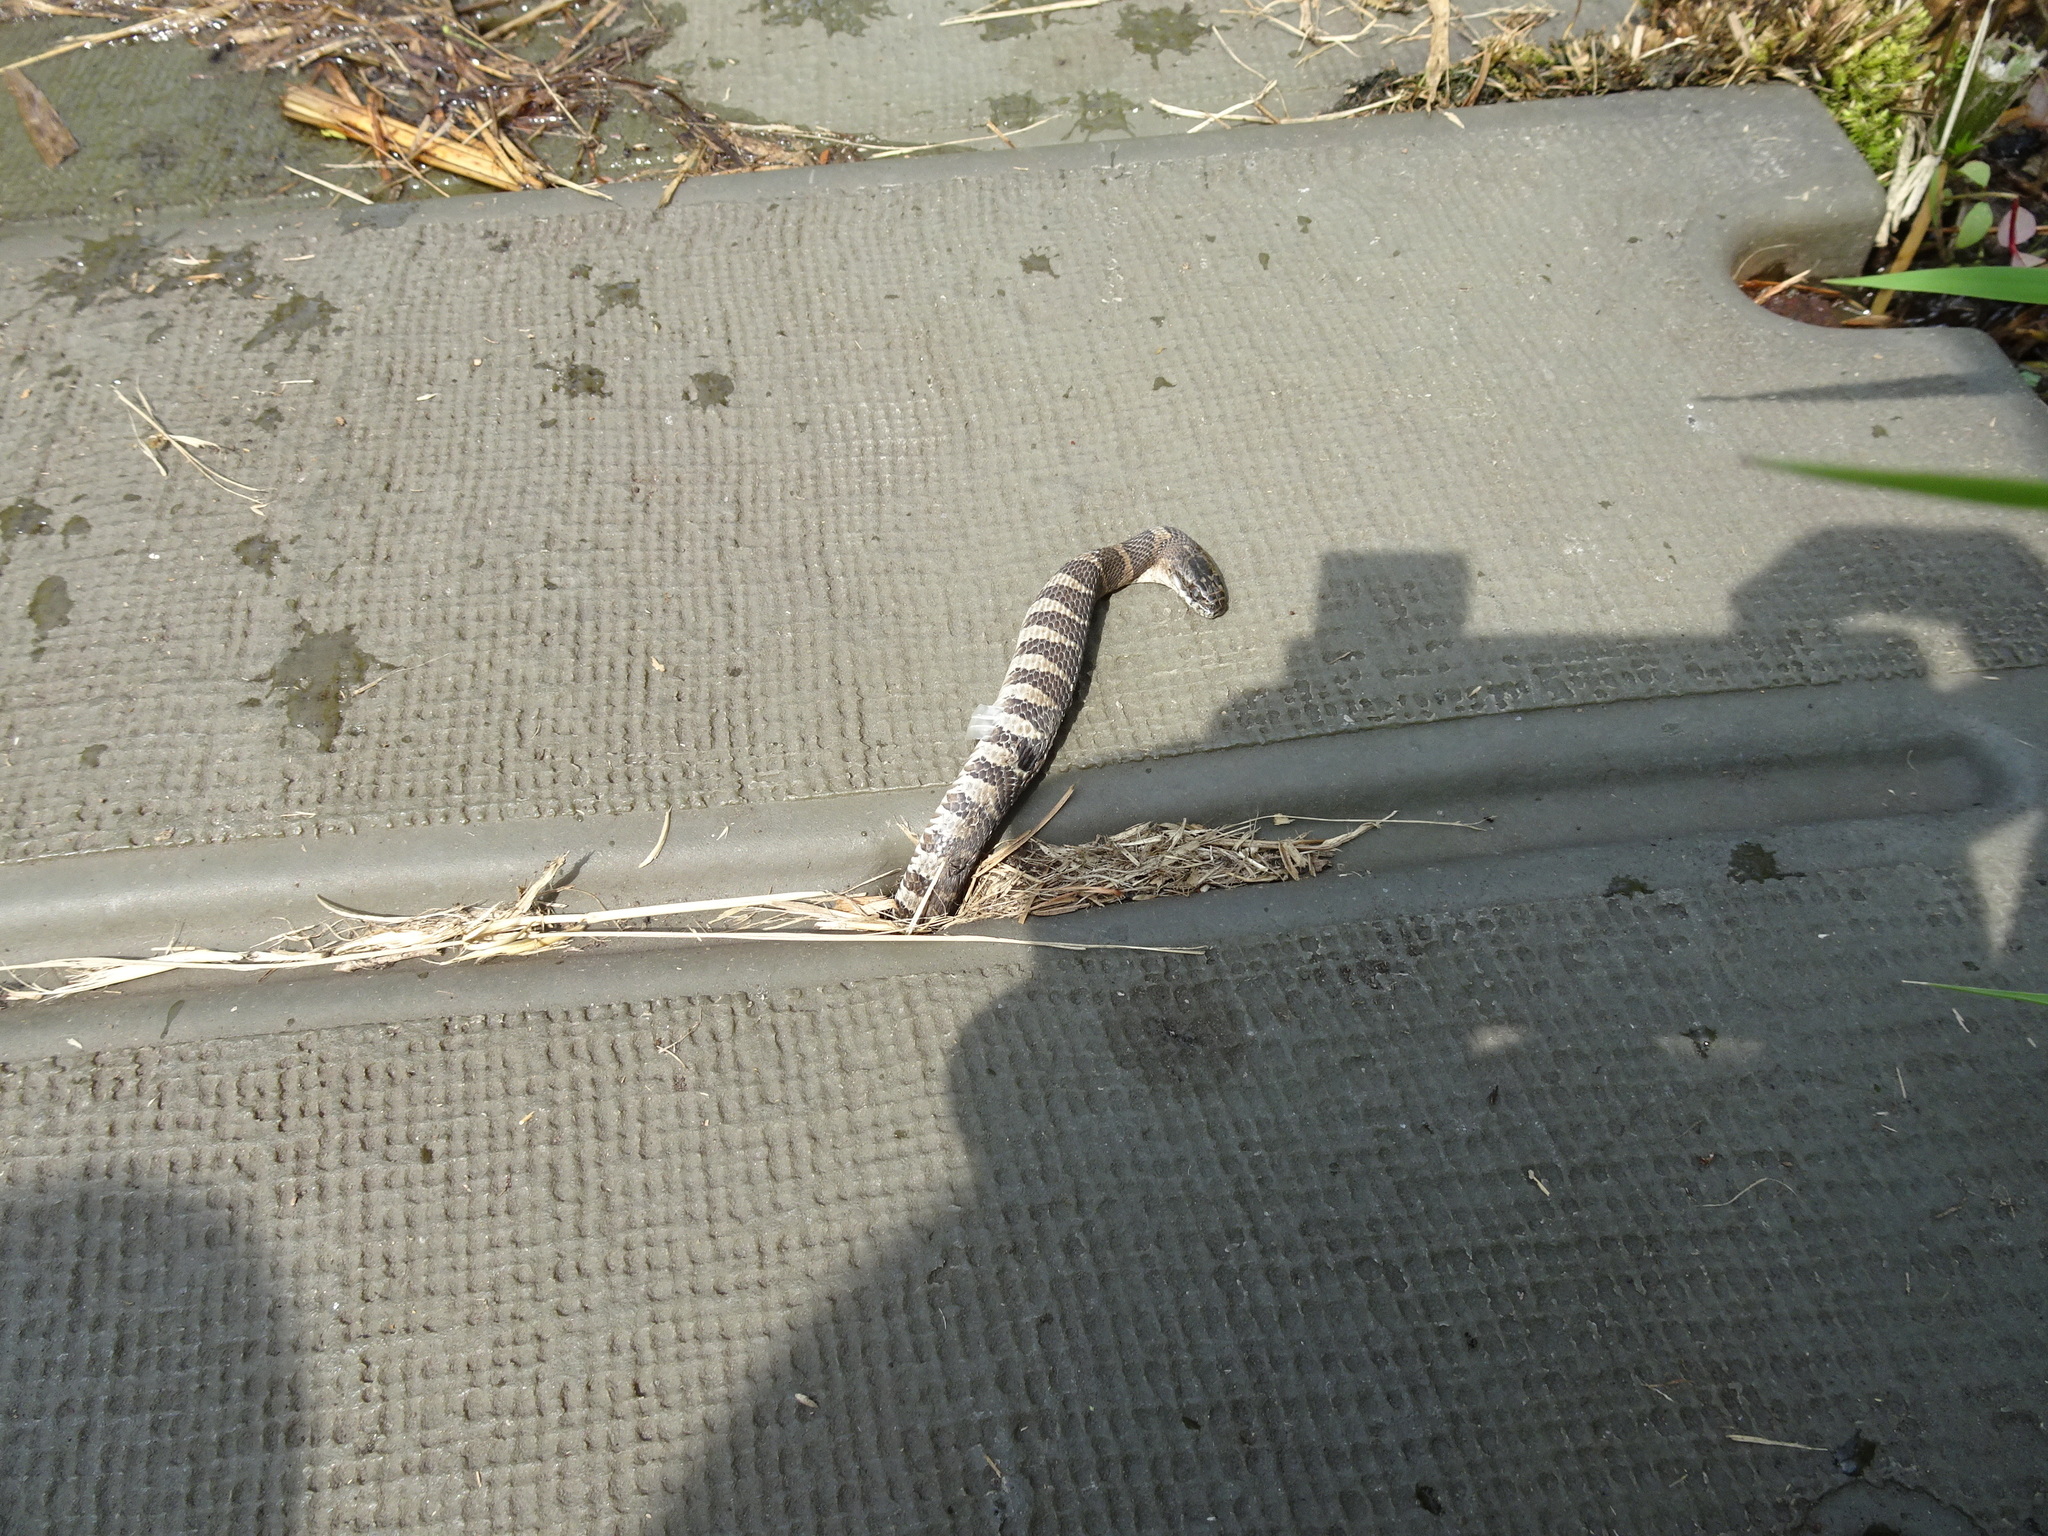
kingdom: Animalia
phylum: Chordata
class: Squamata
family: Colubridae
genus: Nerodia
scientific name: Nerodia sipedon
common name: Northern water snake
